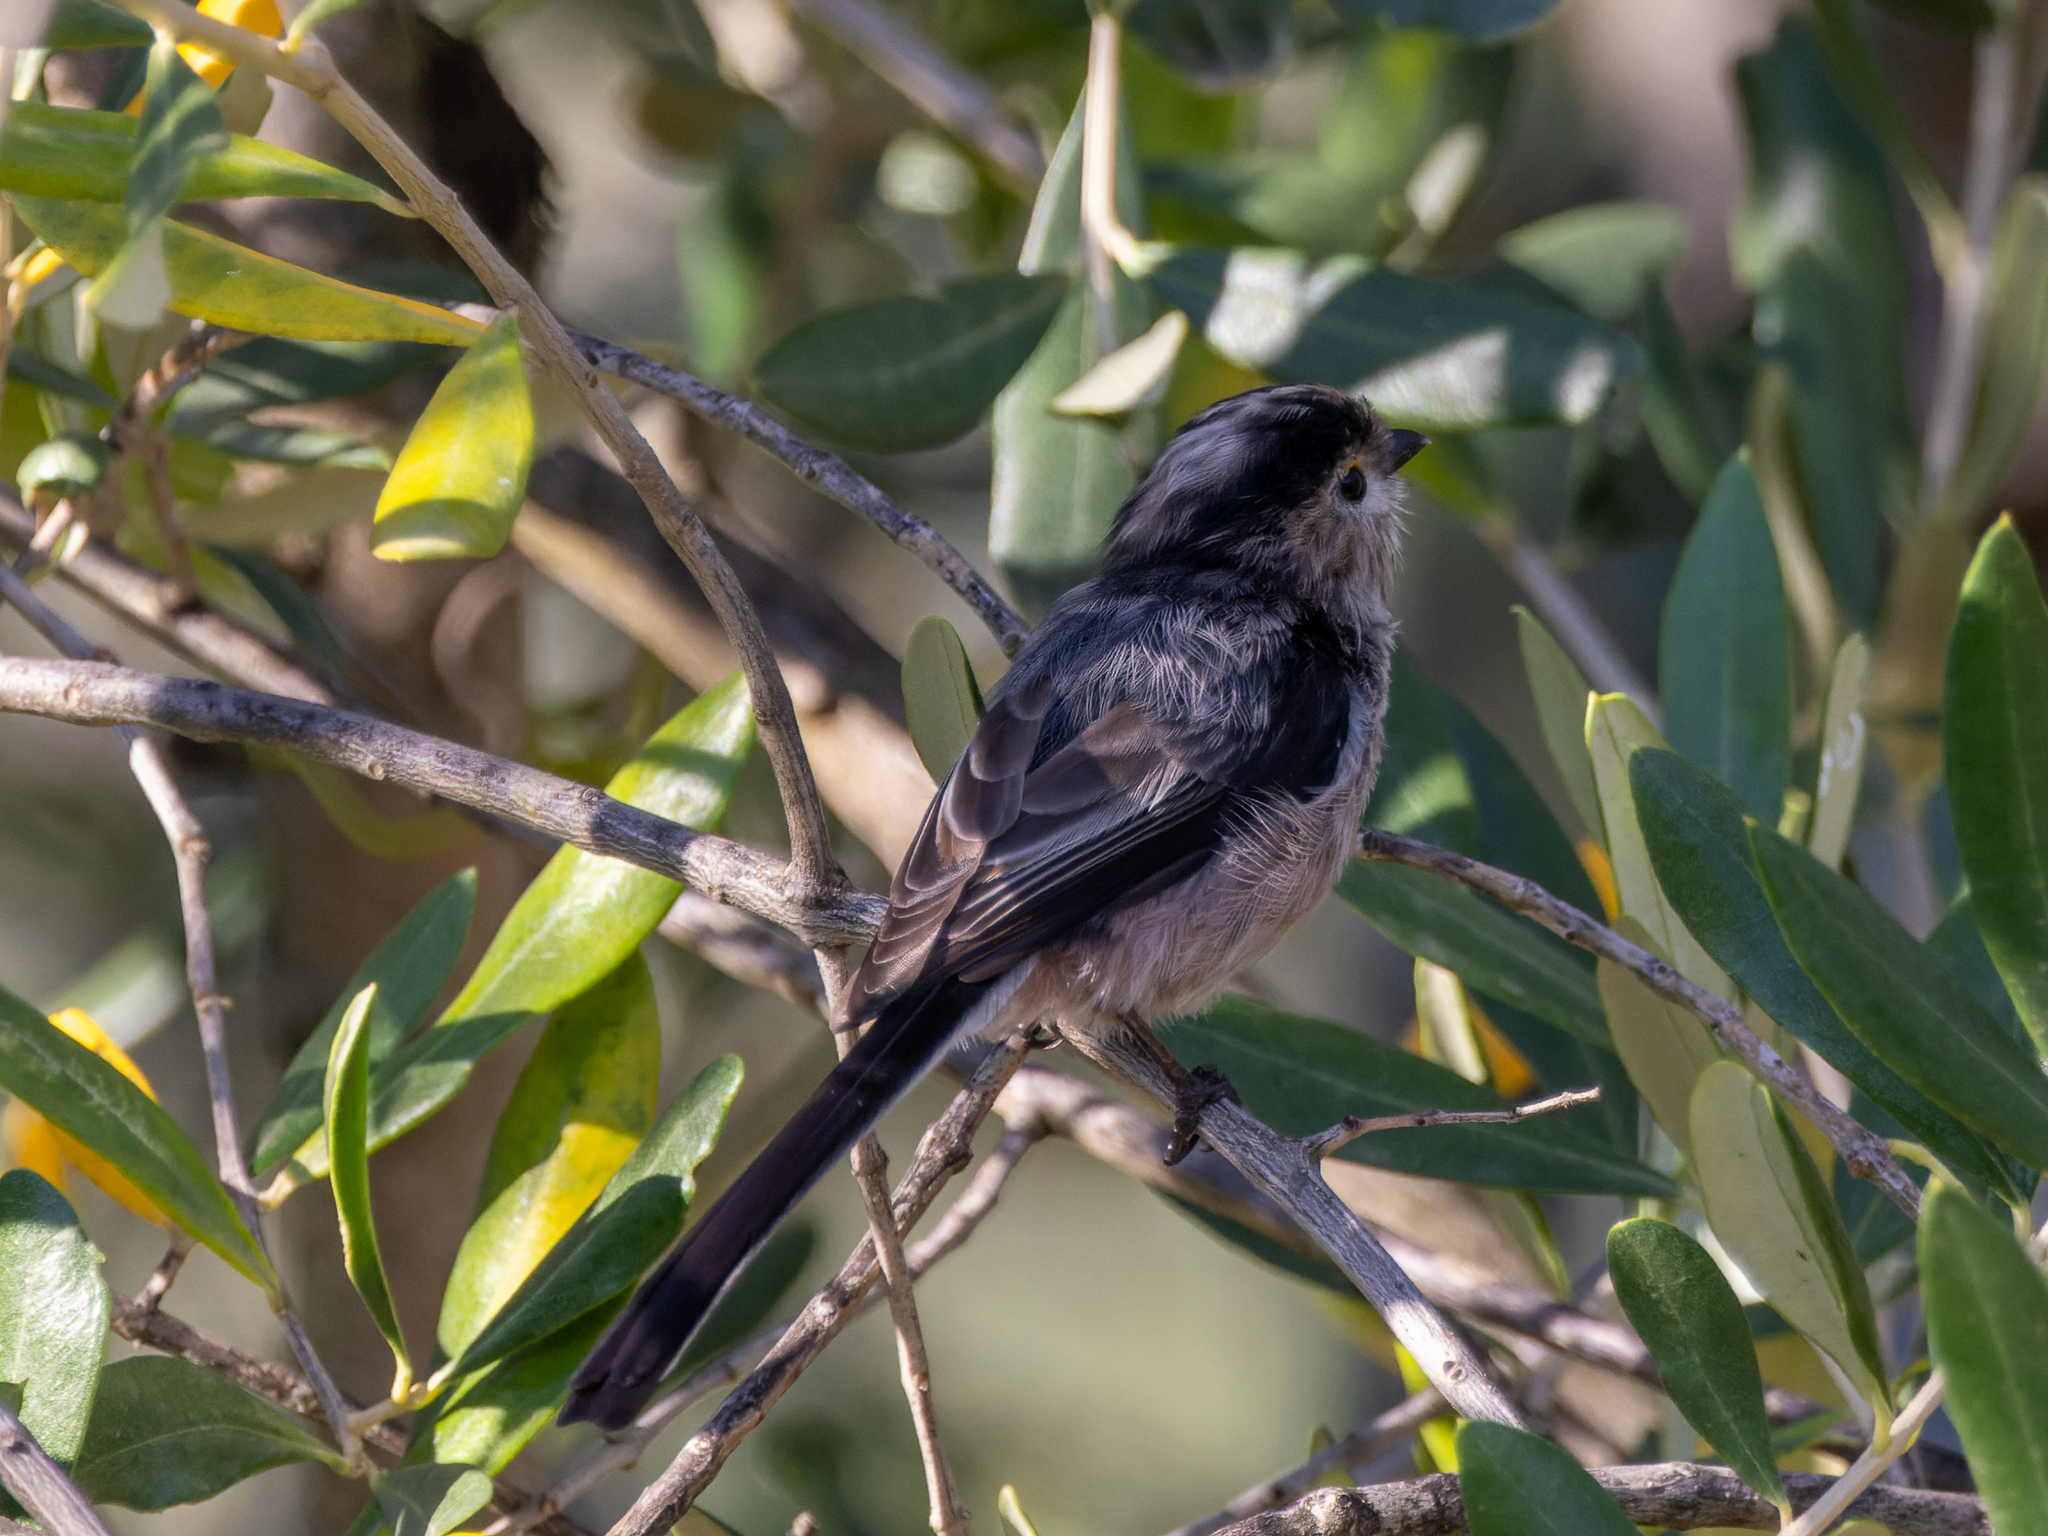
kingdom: Animalia
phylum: Chordata
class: Aves
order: Passeriformes
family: Aegithalidae
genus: Aegithalos
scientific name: Aegithalos caudatus
